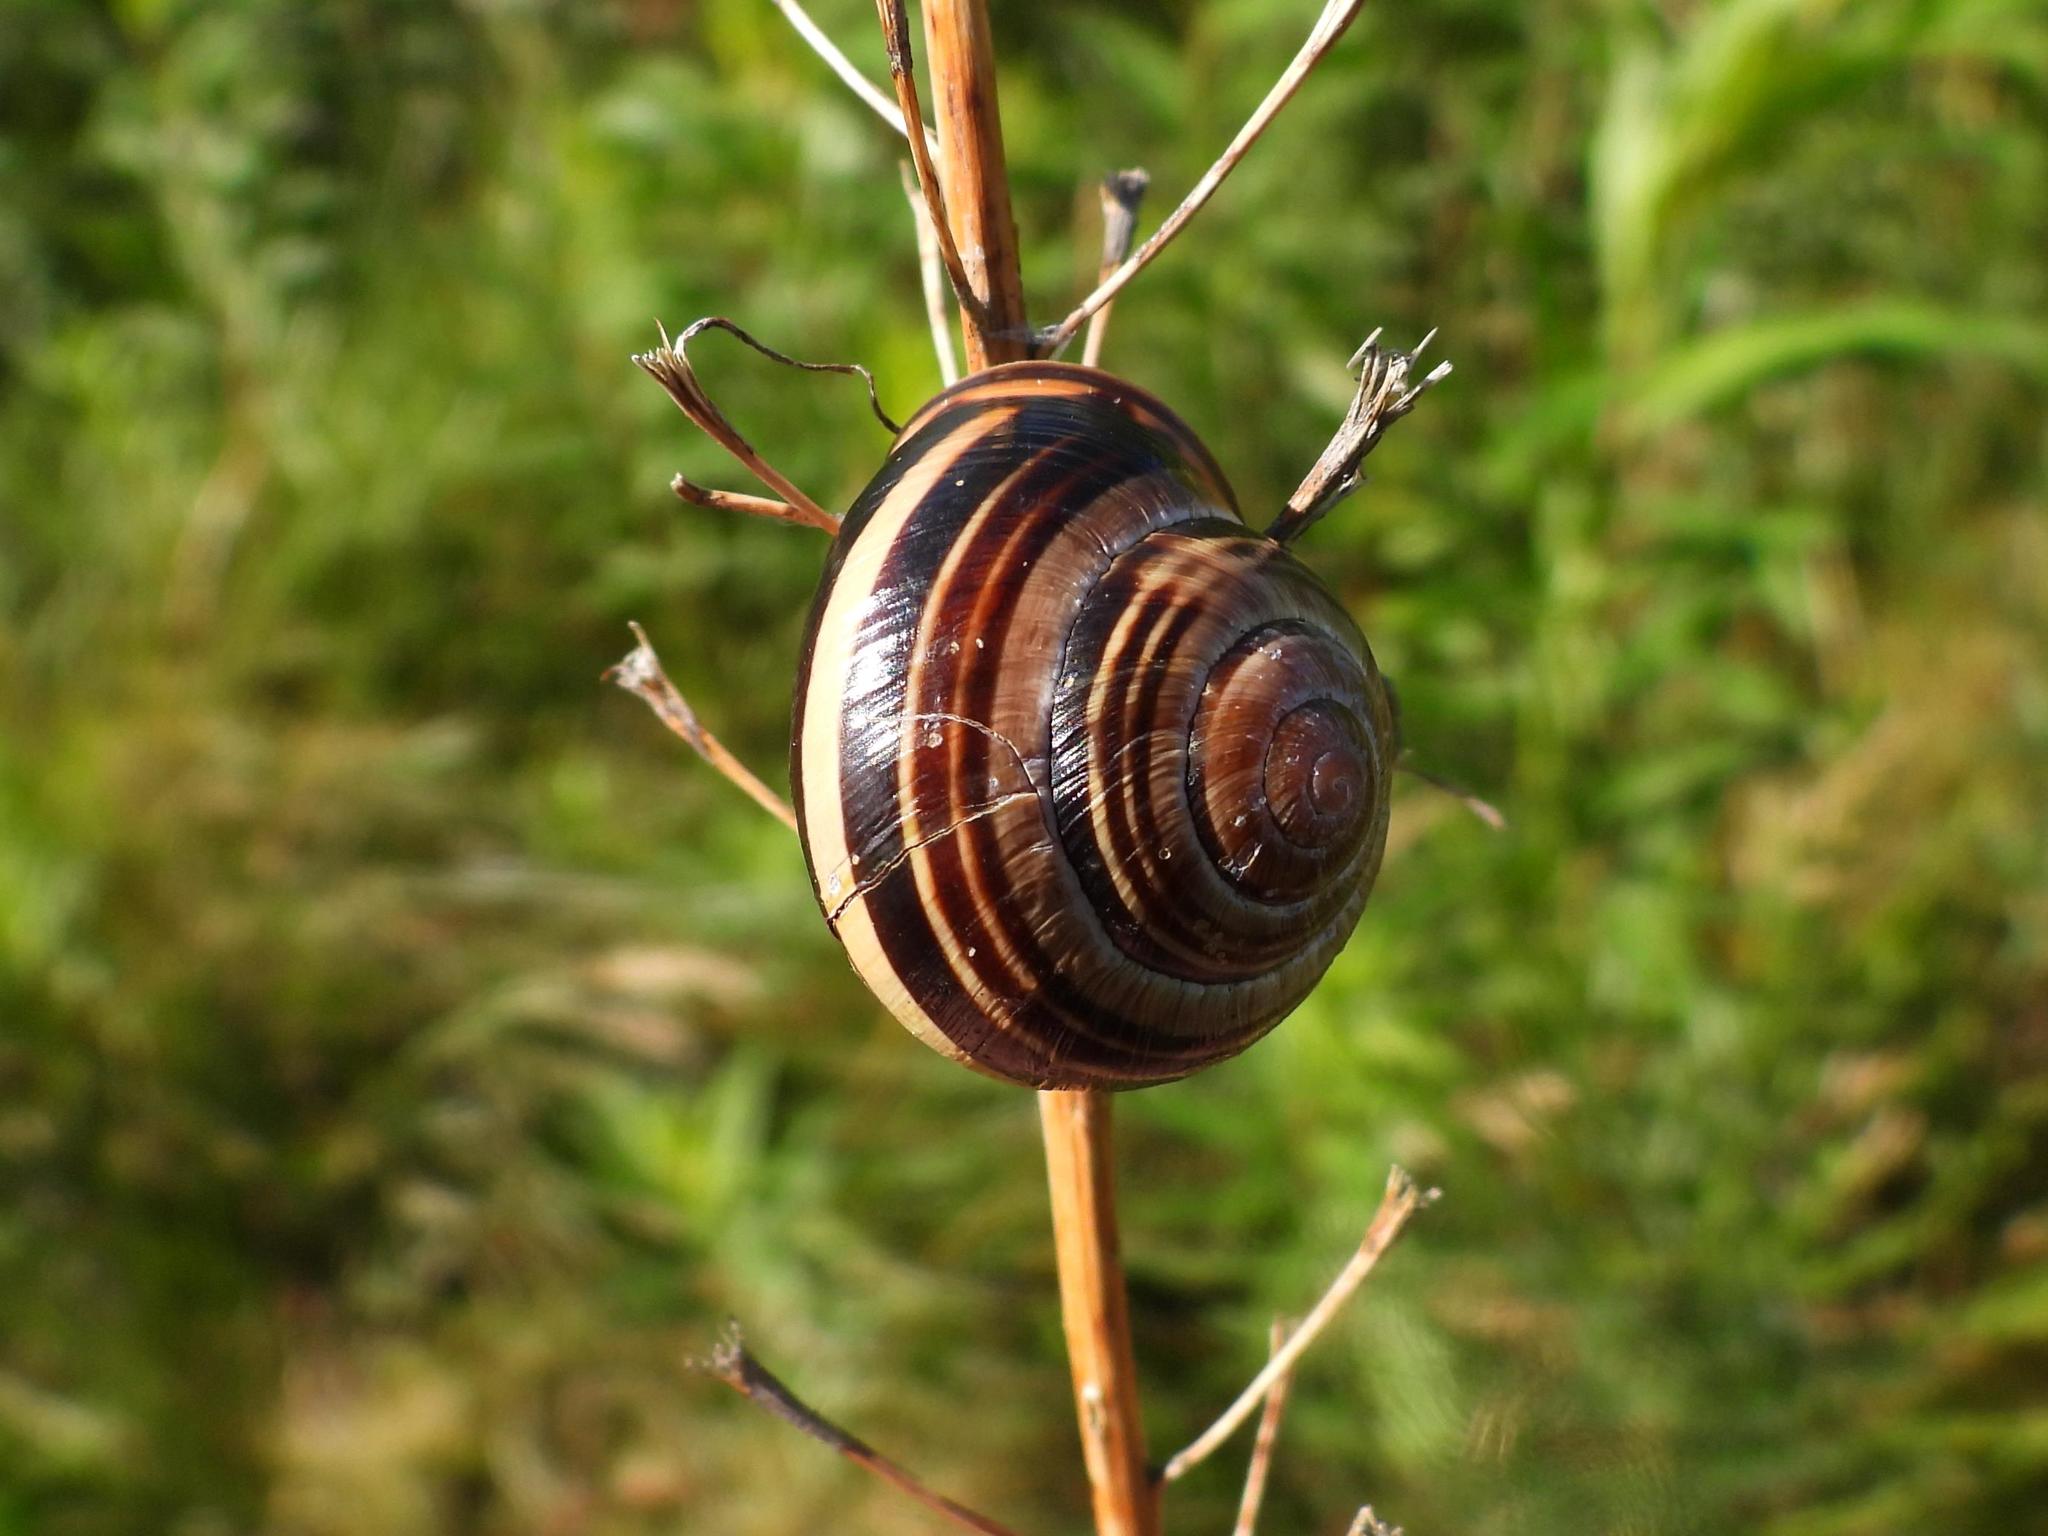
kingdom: Animalia
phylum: Mollusca
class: Gastropoda
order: Stylommatophora
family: Helicidae
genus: Cepaea
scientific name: Cepaea nemoralis
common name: Grovesnail
